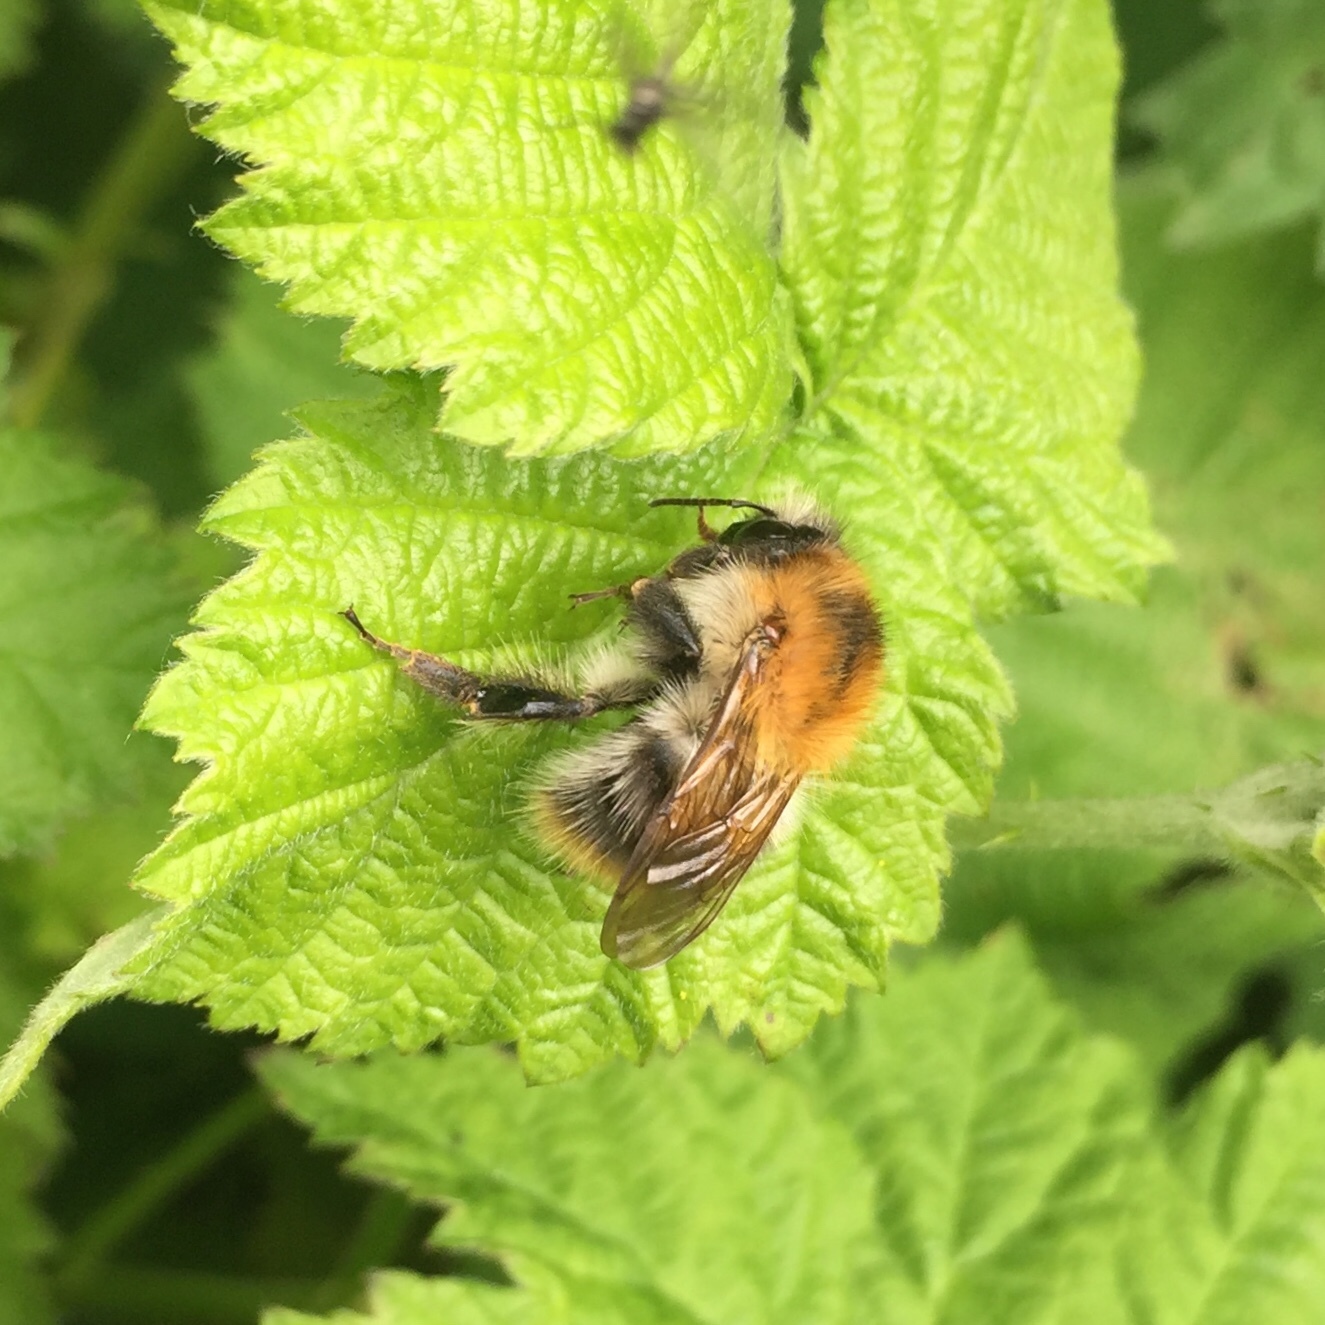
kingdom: Animalia
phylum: Arthropoda
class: Insecta
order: Hymenoptera
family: Apidae
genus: Bombus
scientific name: Bombus pascuorum
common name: Common carder bee
